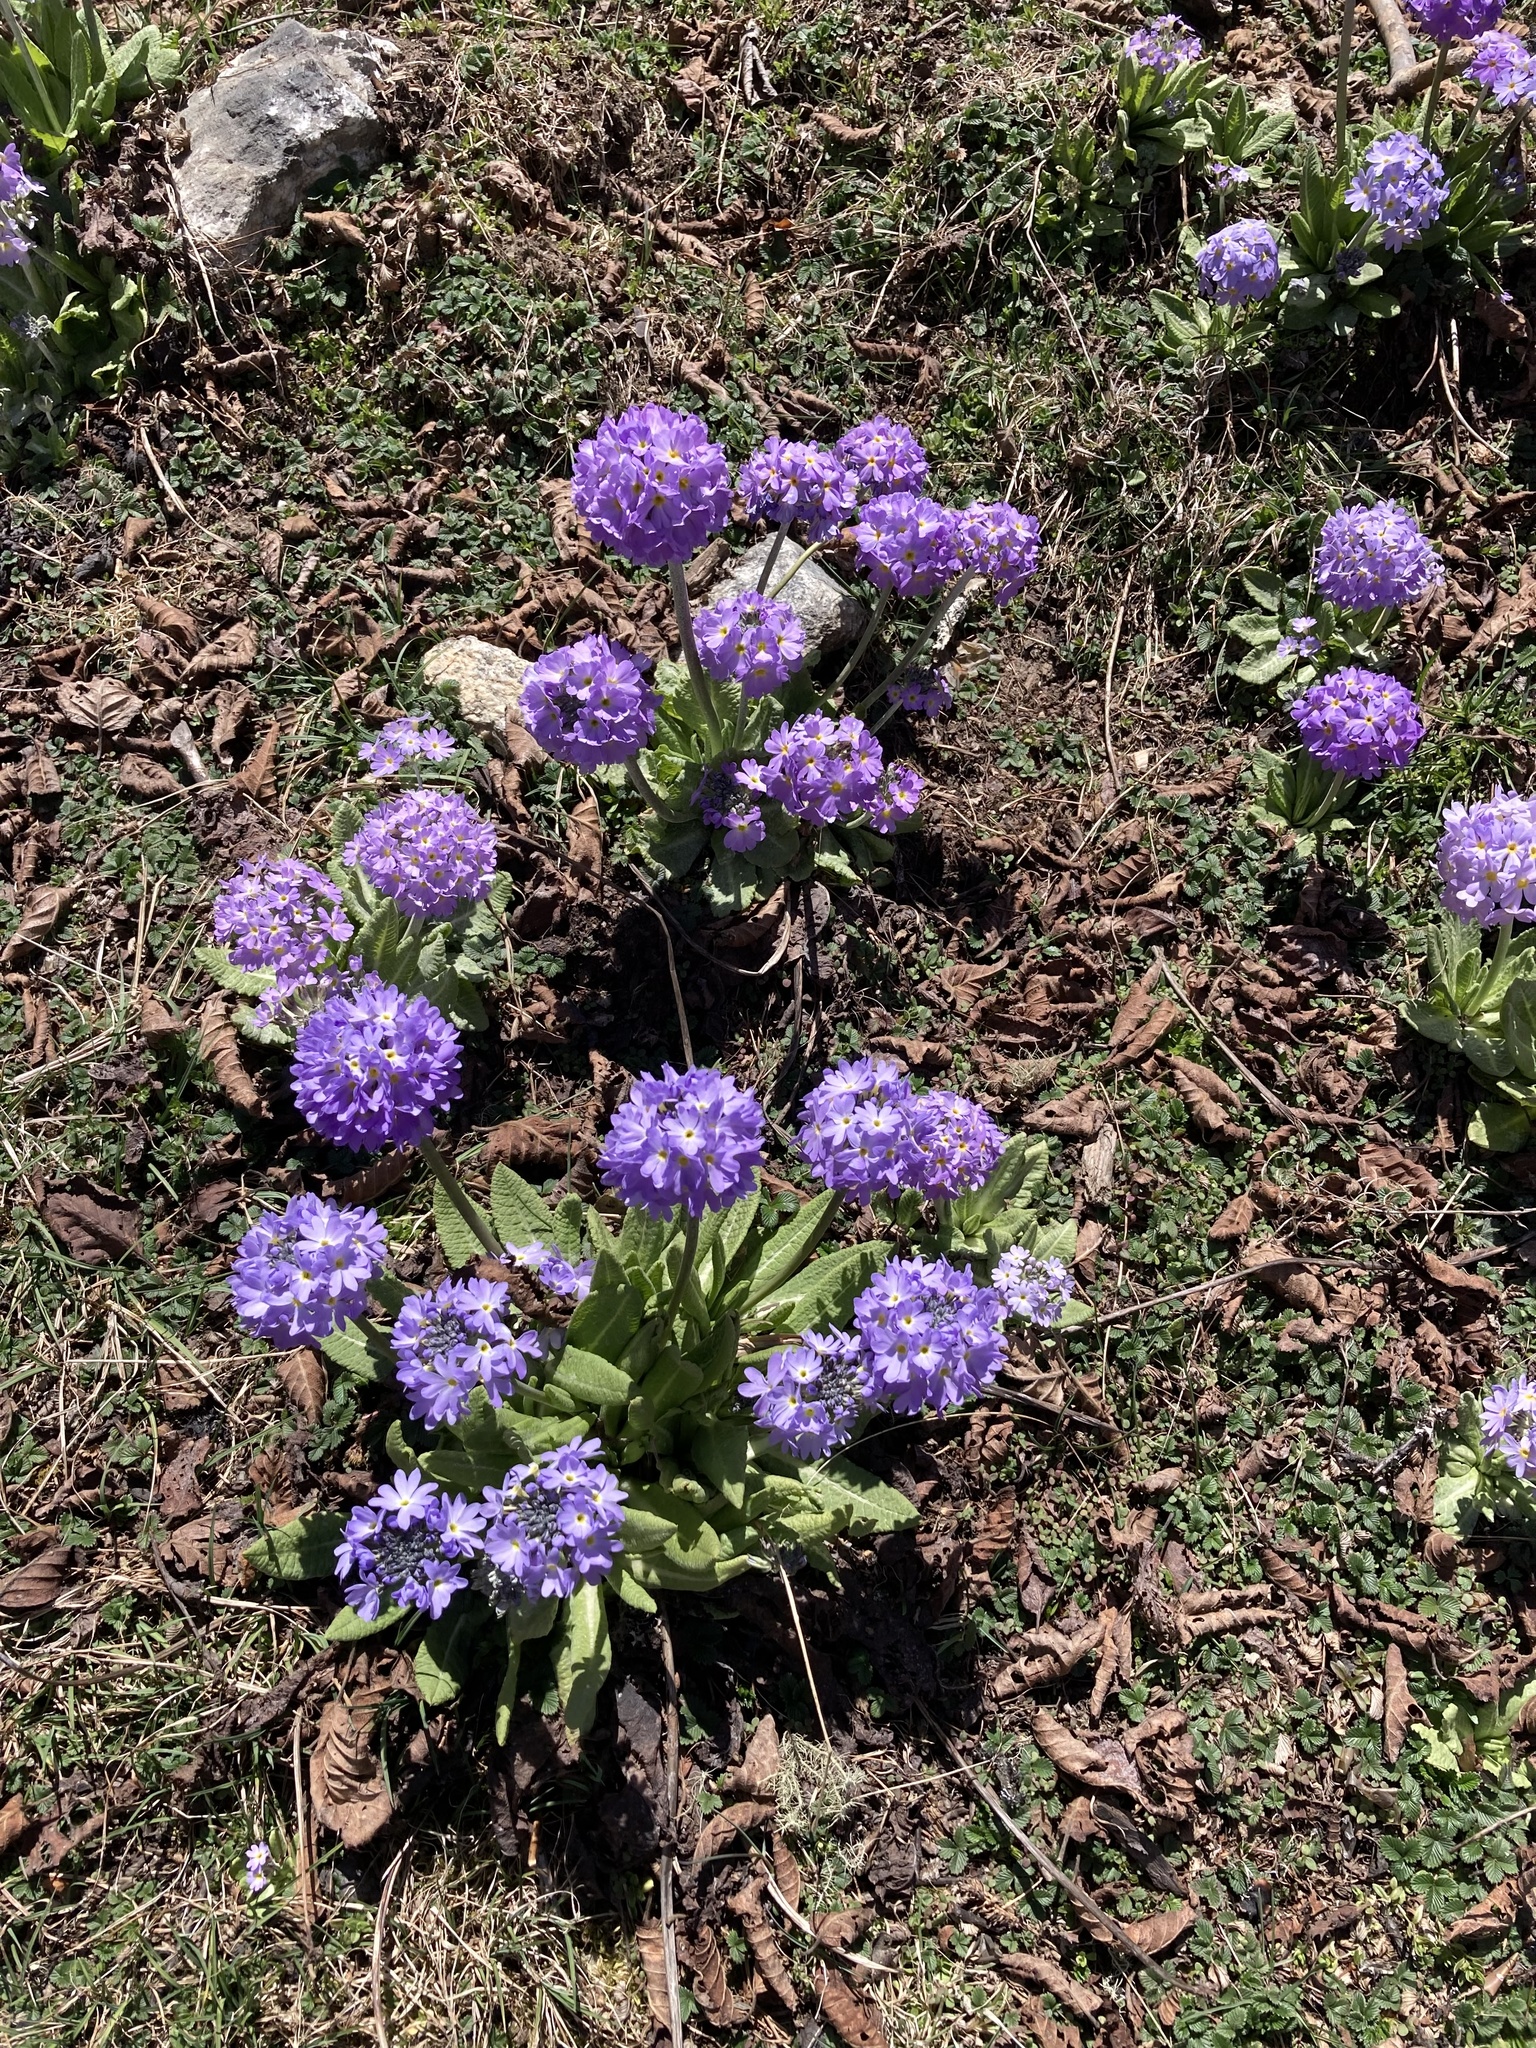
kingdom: Plantae
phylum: Tracheophyta
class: Magnoliopsida
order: Ericales
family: Primulaceae
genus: Primula
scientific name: Primula denticulata
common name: Drumstick primula
